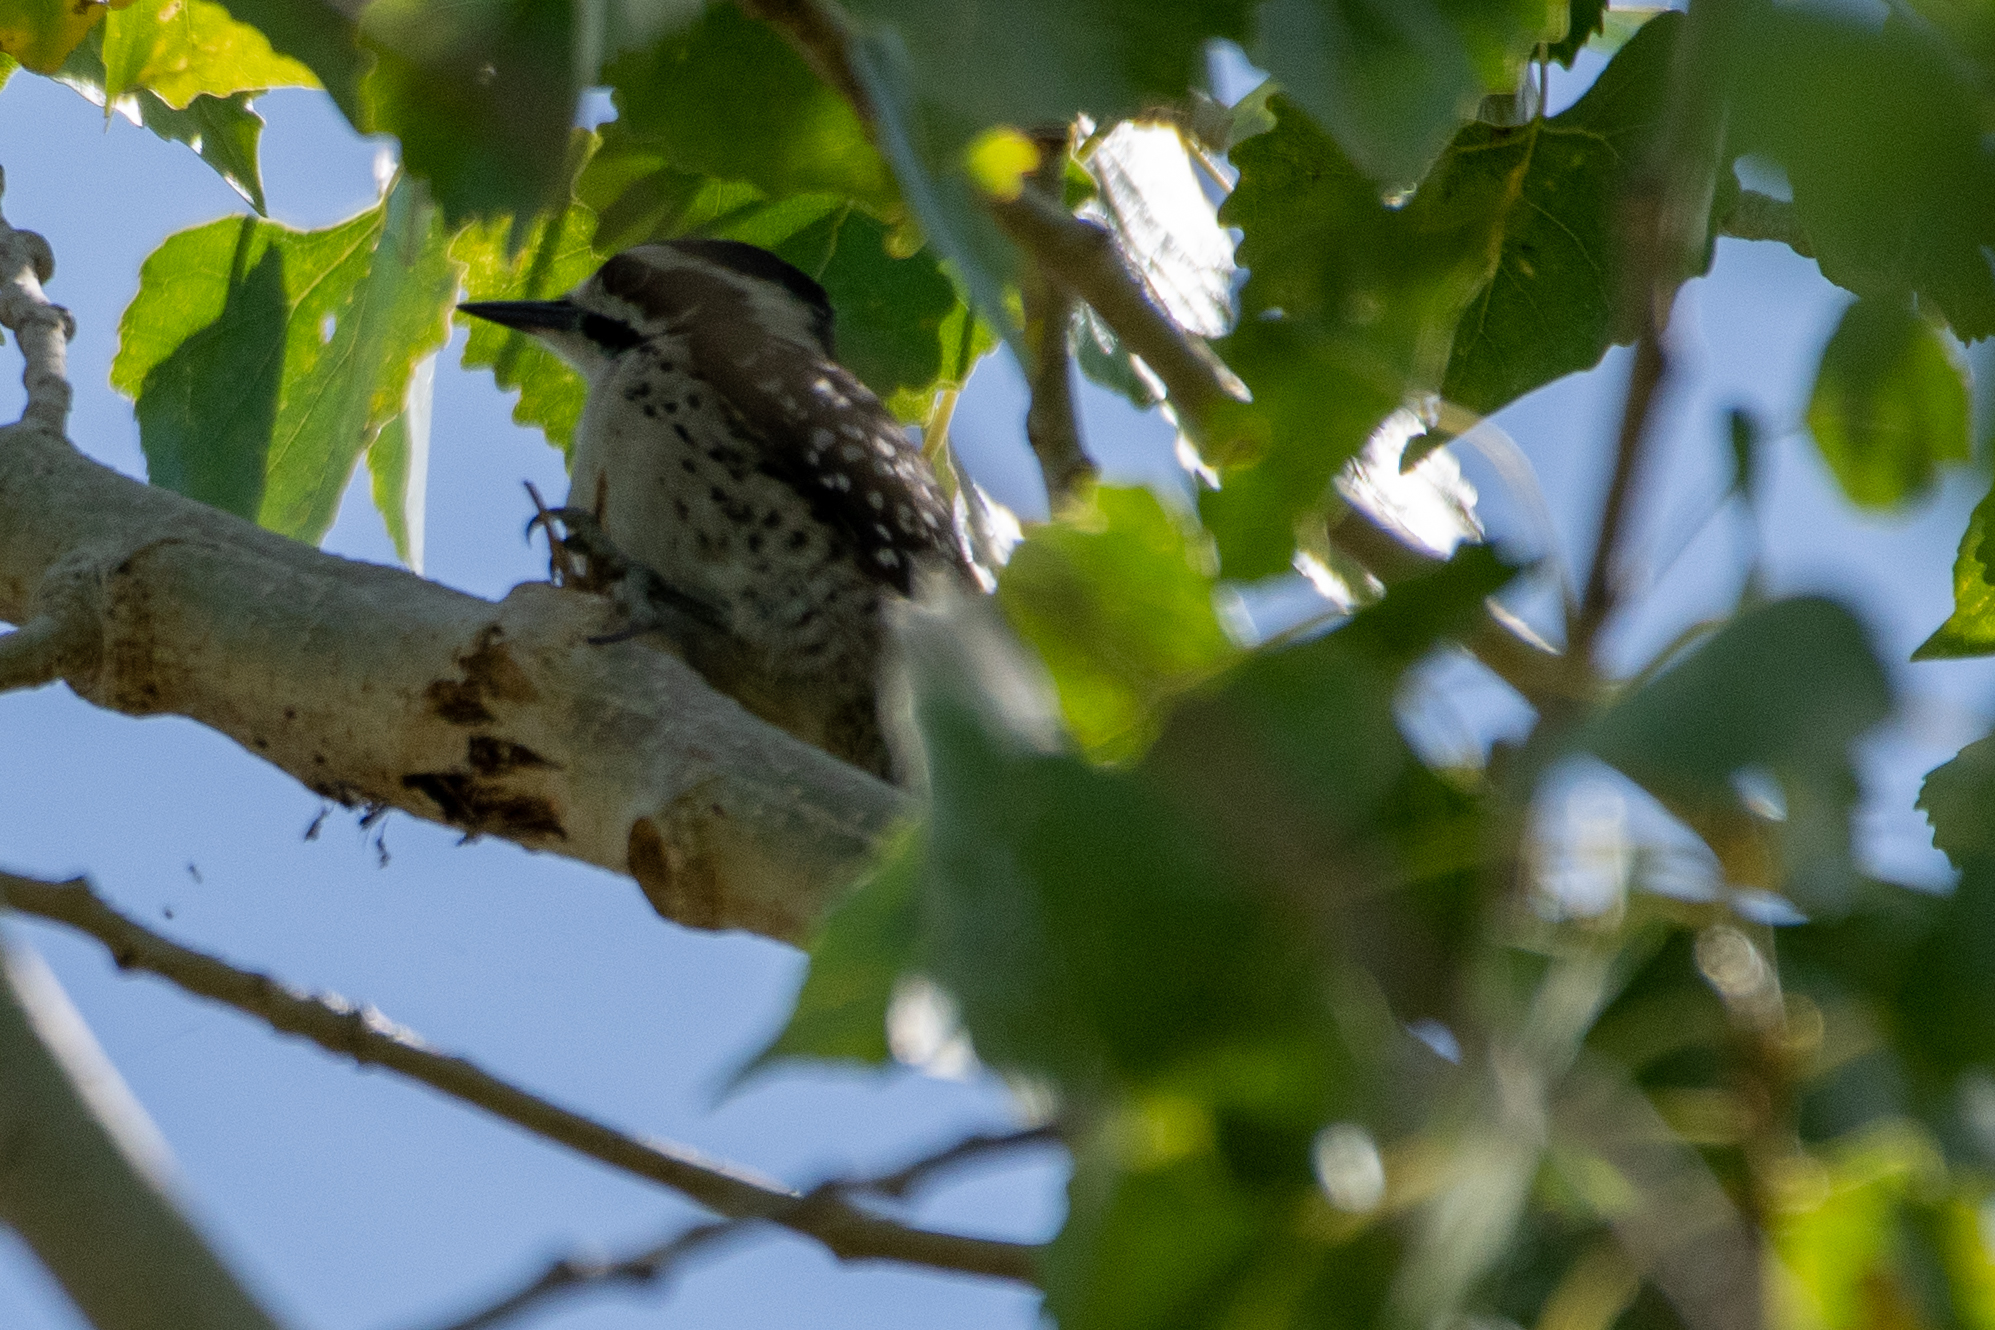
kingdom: Animalia
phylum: Chordata
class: Aves
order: Piciformes
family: Picidae
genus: Dryobates
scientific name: Dryobates nuttallii
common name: Nuttall's woodpecker
